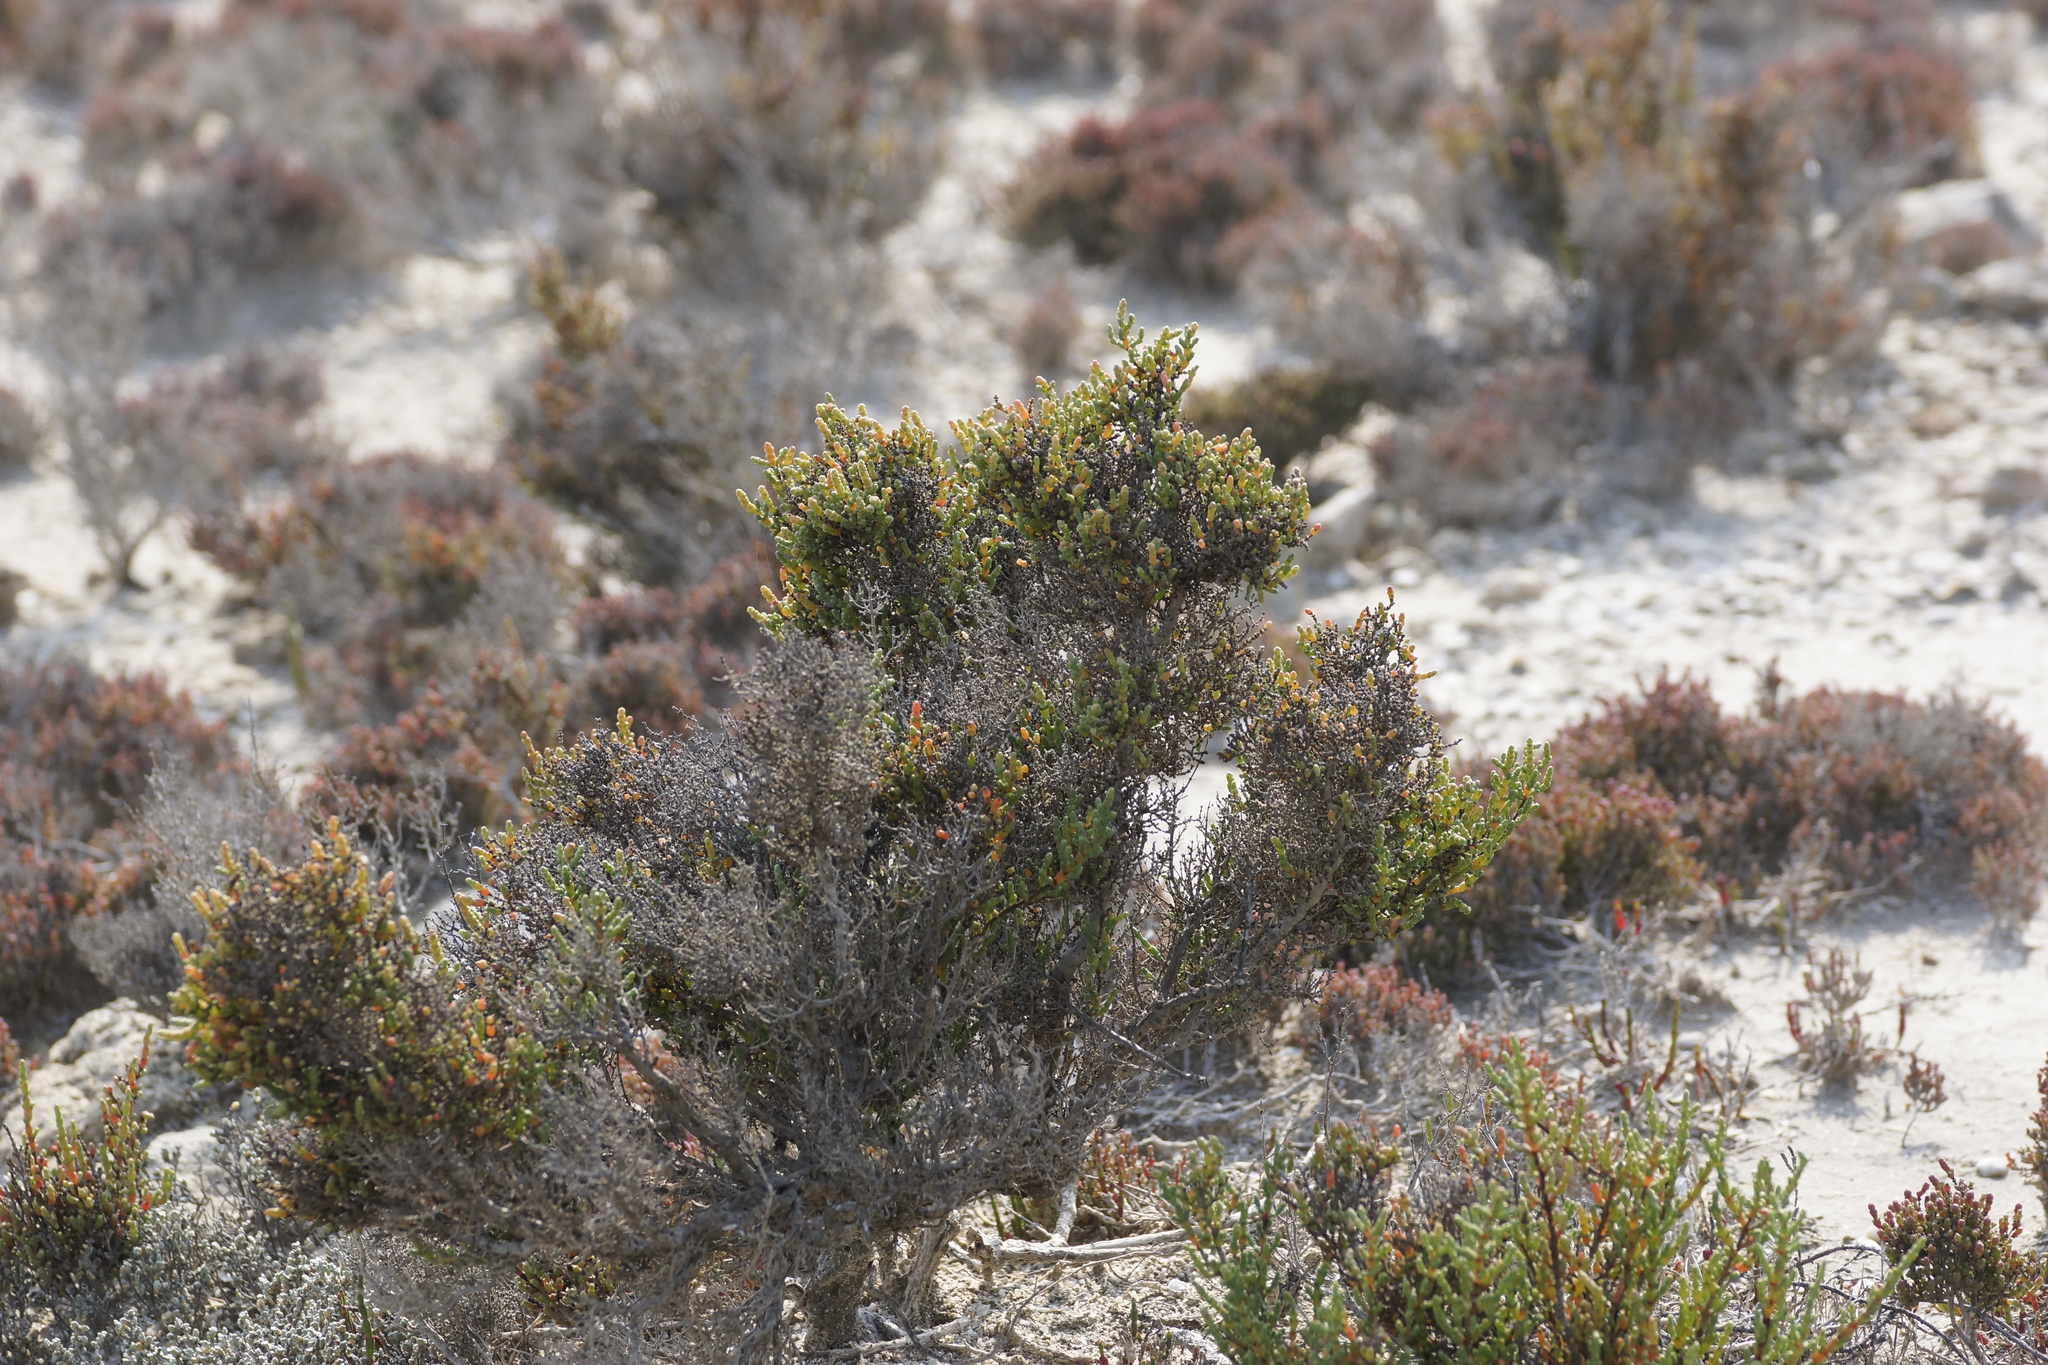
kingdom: Plantae
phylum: Tracheophyta
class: Magnoliopsida
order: Caryophyllales
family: Amaranthaceae
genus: Tecticornia
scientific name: Tecticornia arbuscula
